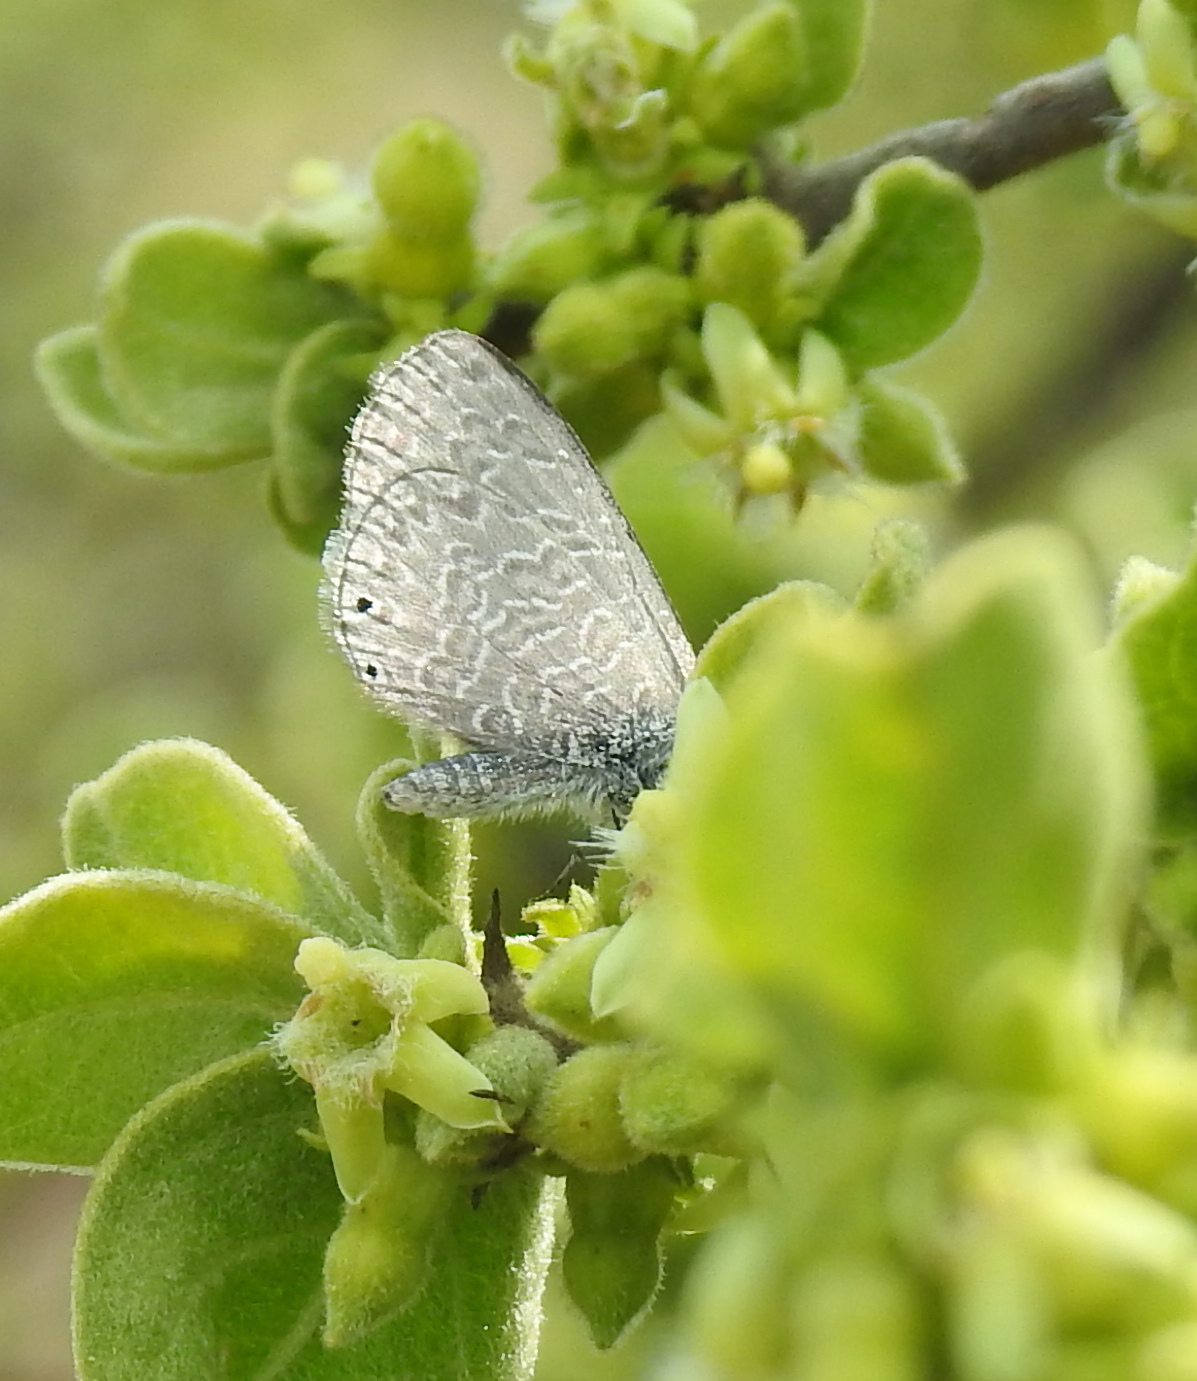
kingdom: Animalia
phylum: Arthropoda
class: Insecta
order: Lepidoptera
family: Lycaenidae
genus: Pseudonacaduba
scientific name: Pseudonacaduba sichela
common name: African line blue
